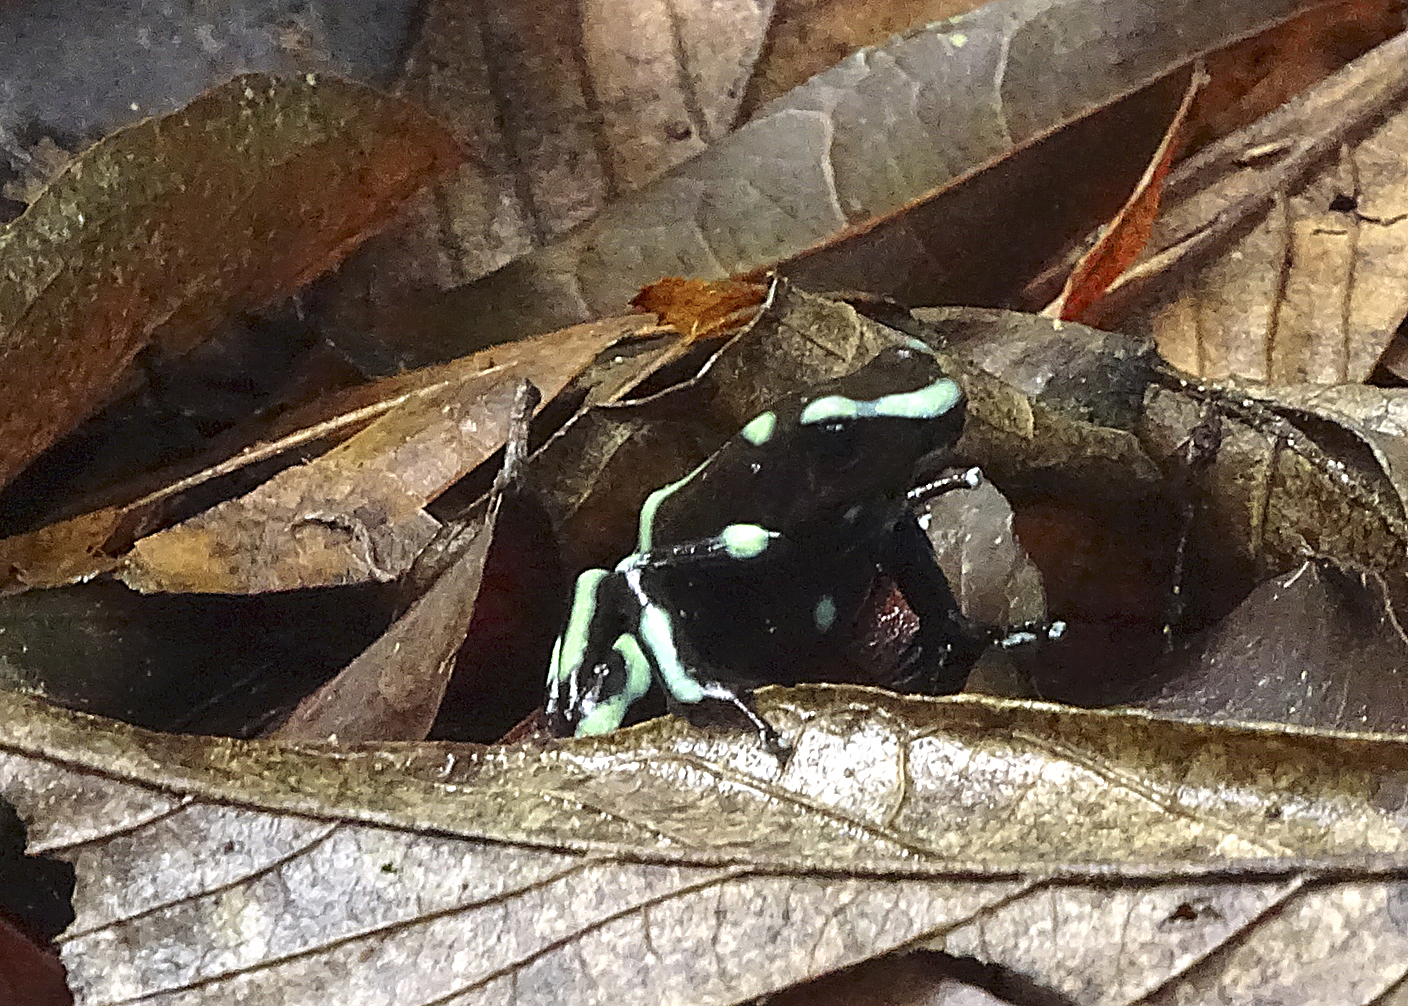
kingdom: Animalia
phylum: Chordata
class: Amphibia
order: Anura
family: Dendrobatidae
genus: Dendrobates
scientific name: Dendrobates auratus
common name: Green and black poison dart frog
